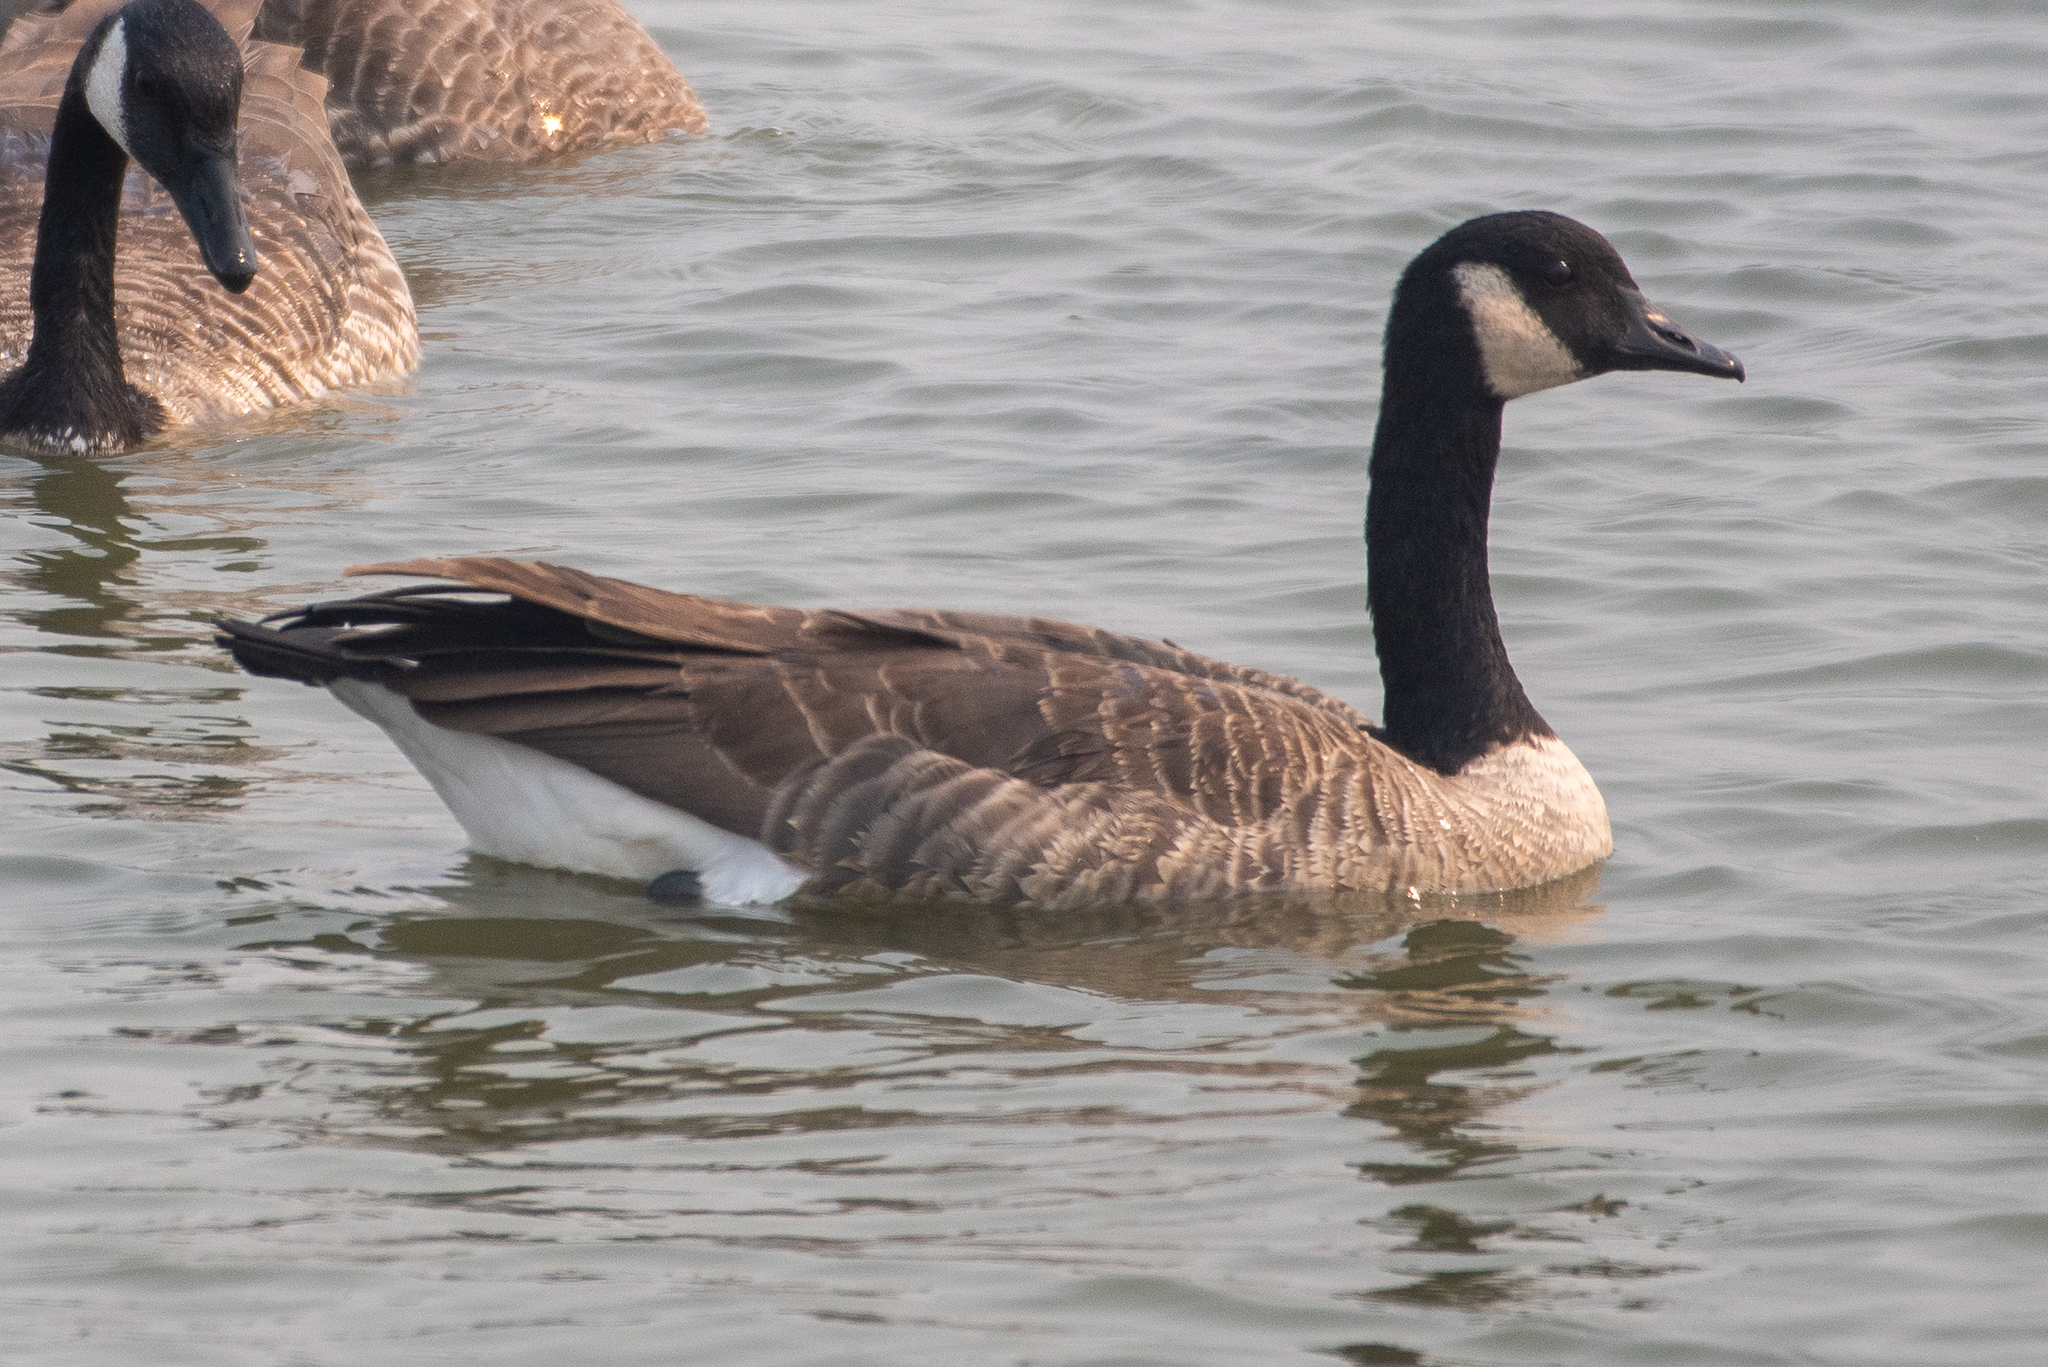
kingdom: Animalia
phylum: Chordata
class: Aves
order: Anseriformes
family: Anatidae
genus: Branta
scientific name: Branta canadensis
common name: Canada goose
